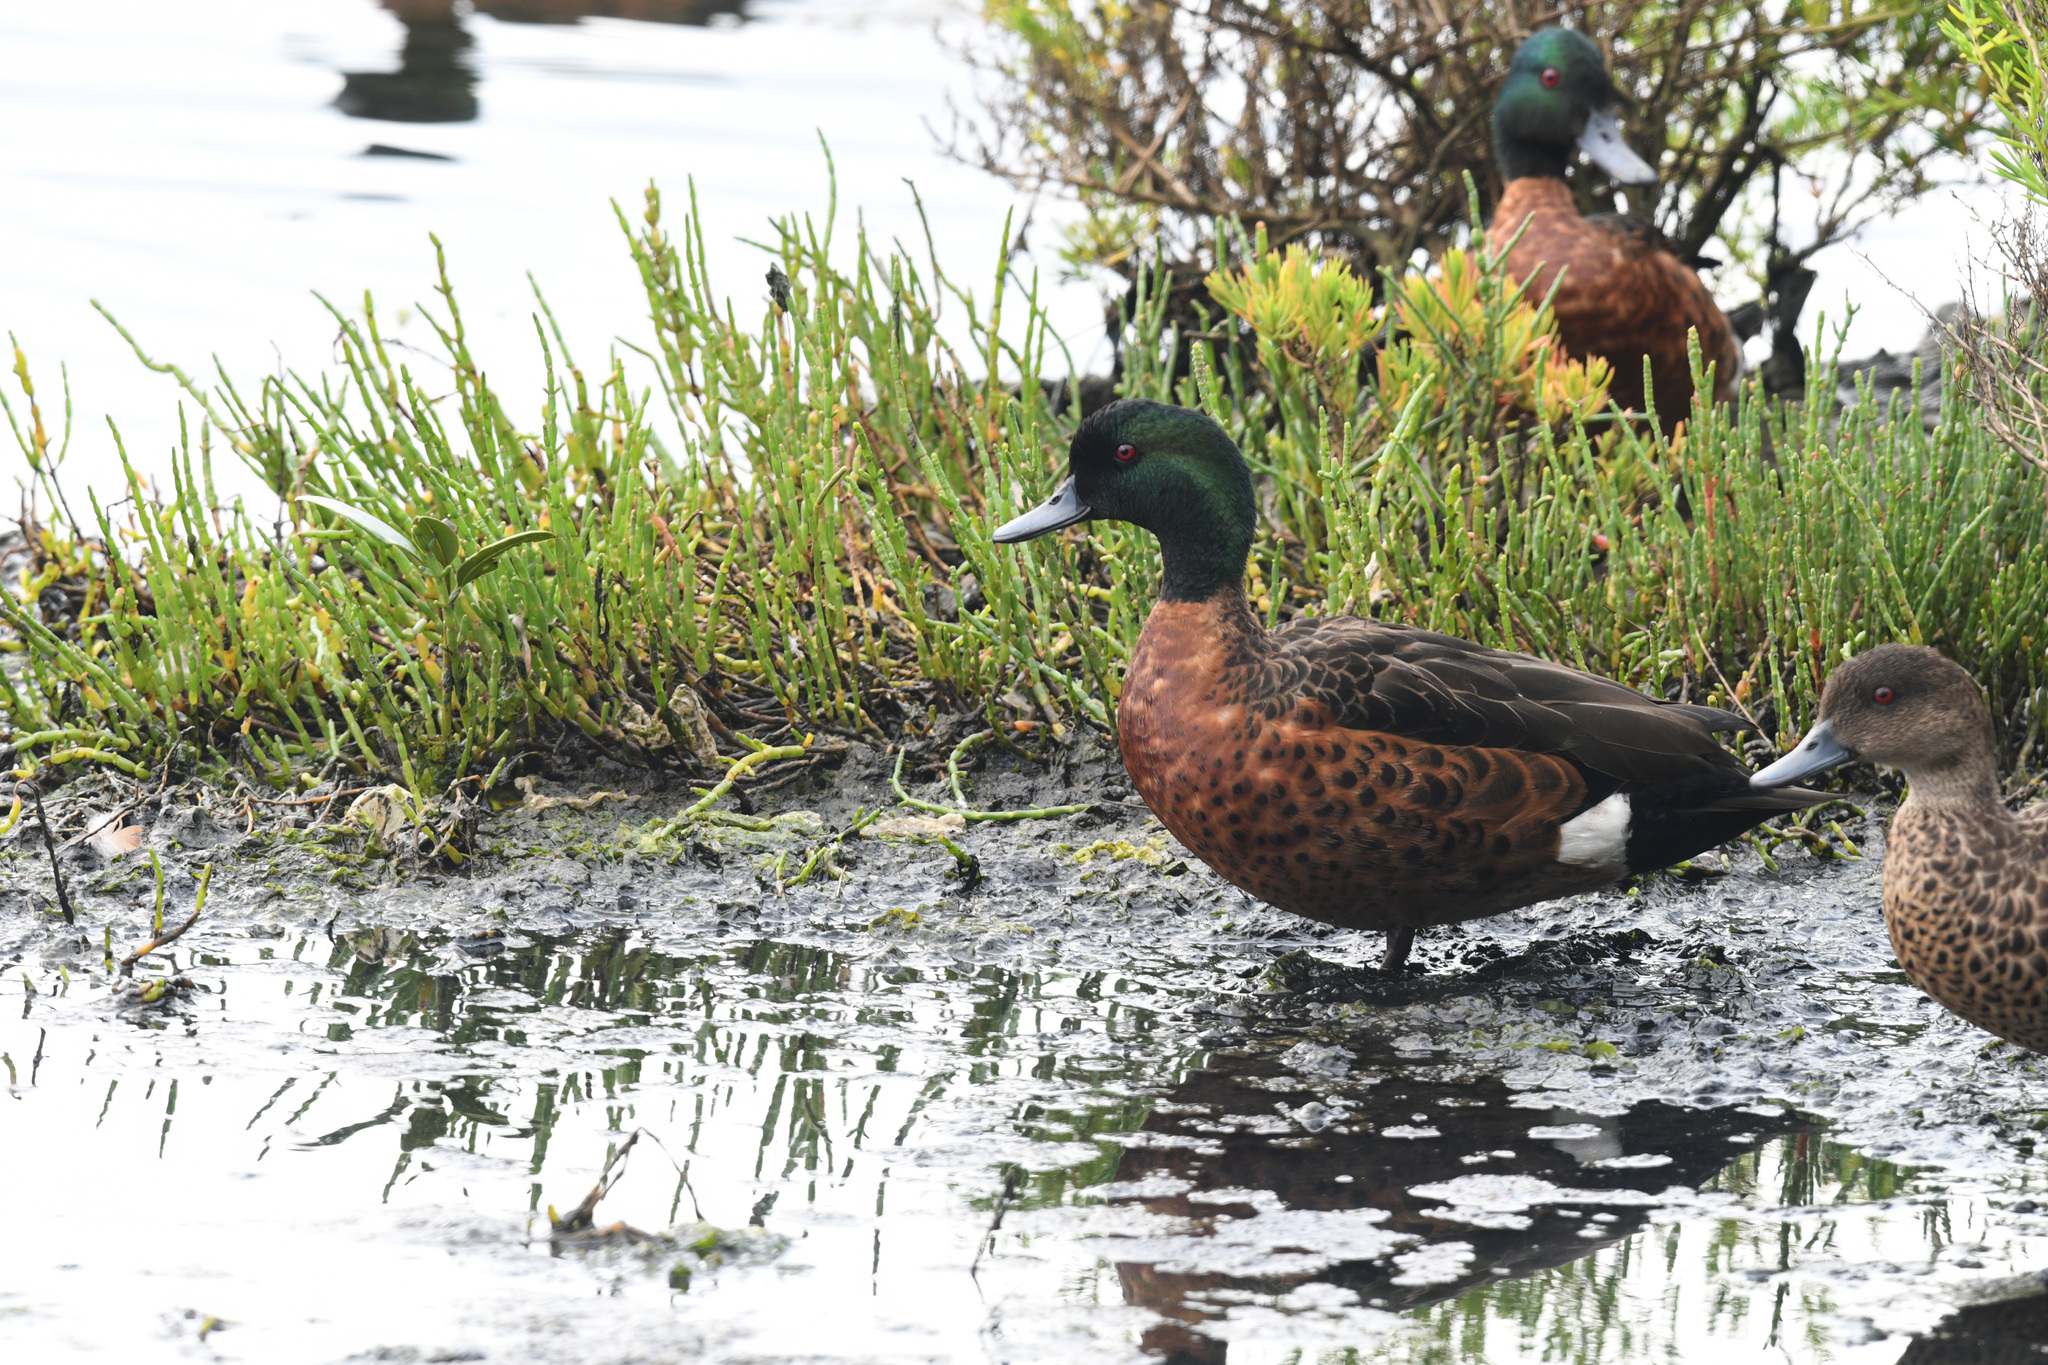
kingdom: Animalia
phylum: Chordata
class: Aves
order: Anseriformes
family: Anatidae
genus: Anas
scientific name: Anas castanea
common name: Chestnut teal
